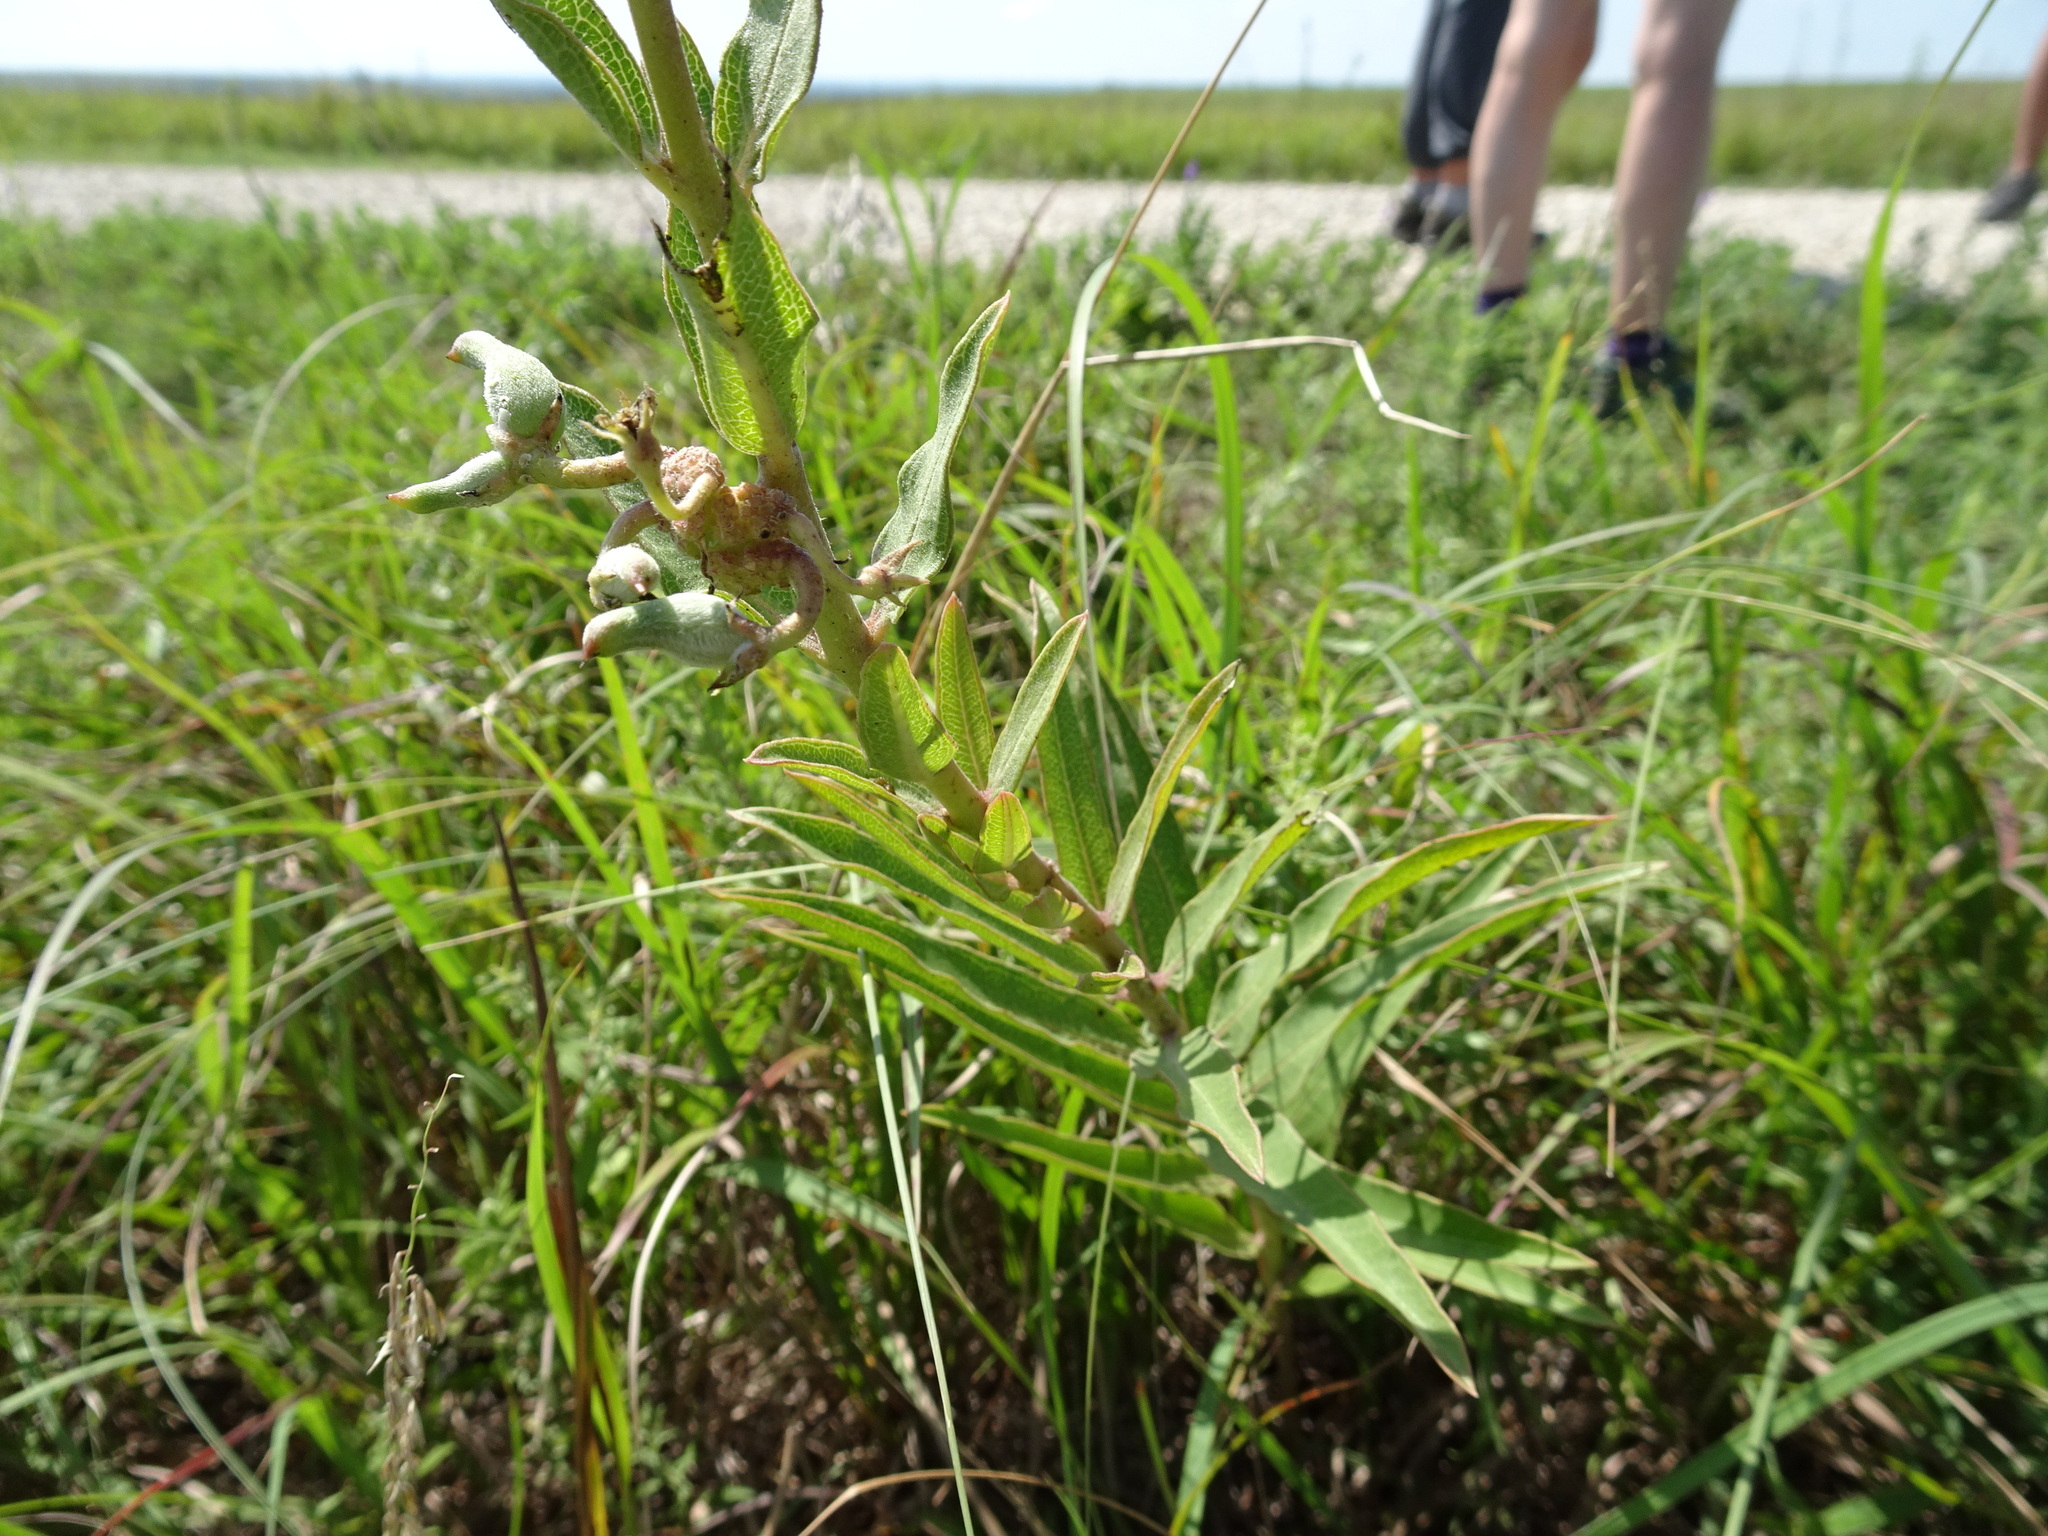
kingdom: Plantae
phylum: Tracheophyta
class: Magnoliopsida
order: Gentianales
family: Apocynaceae
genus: Asclepias
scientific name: Asclepias viridiflora
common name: Green comet milkweed
